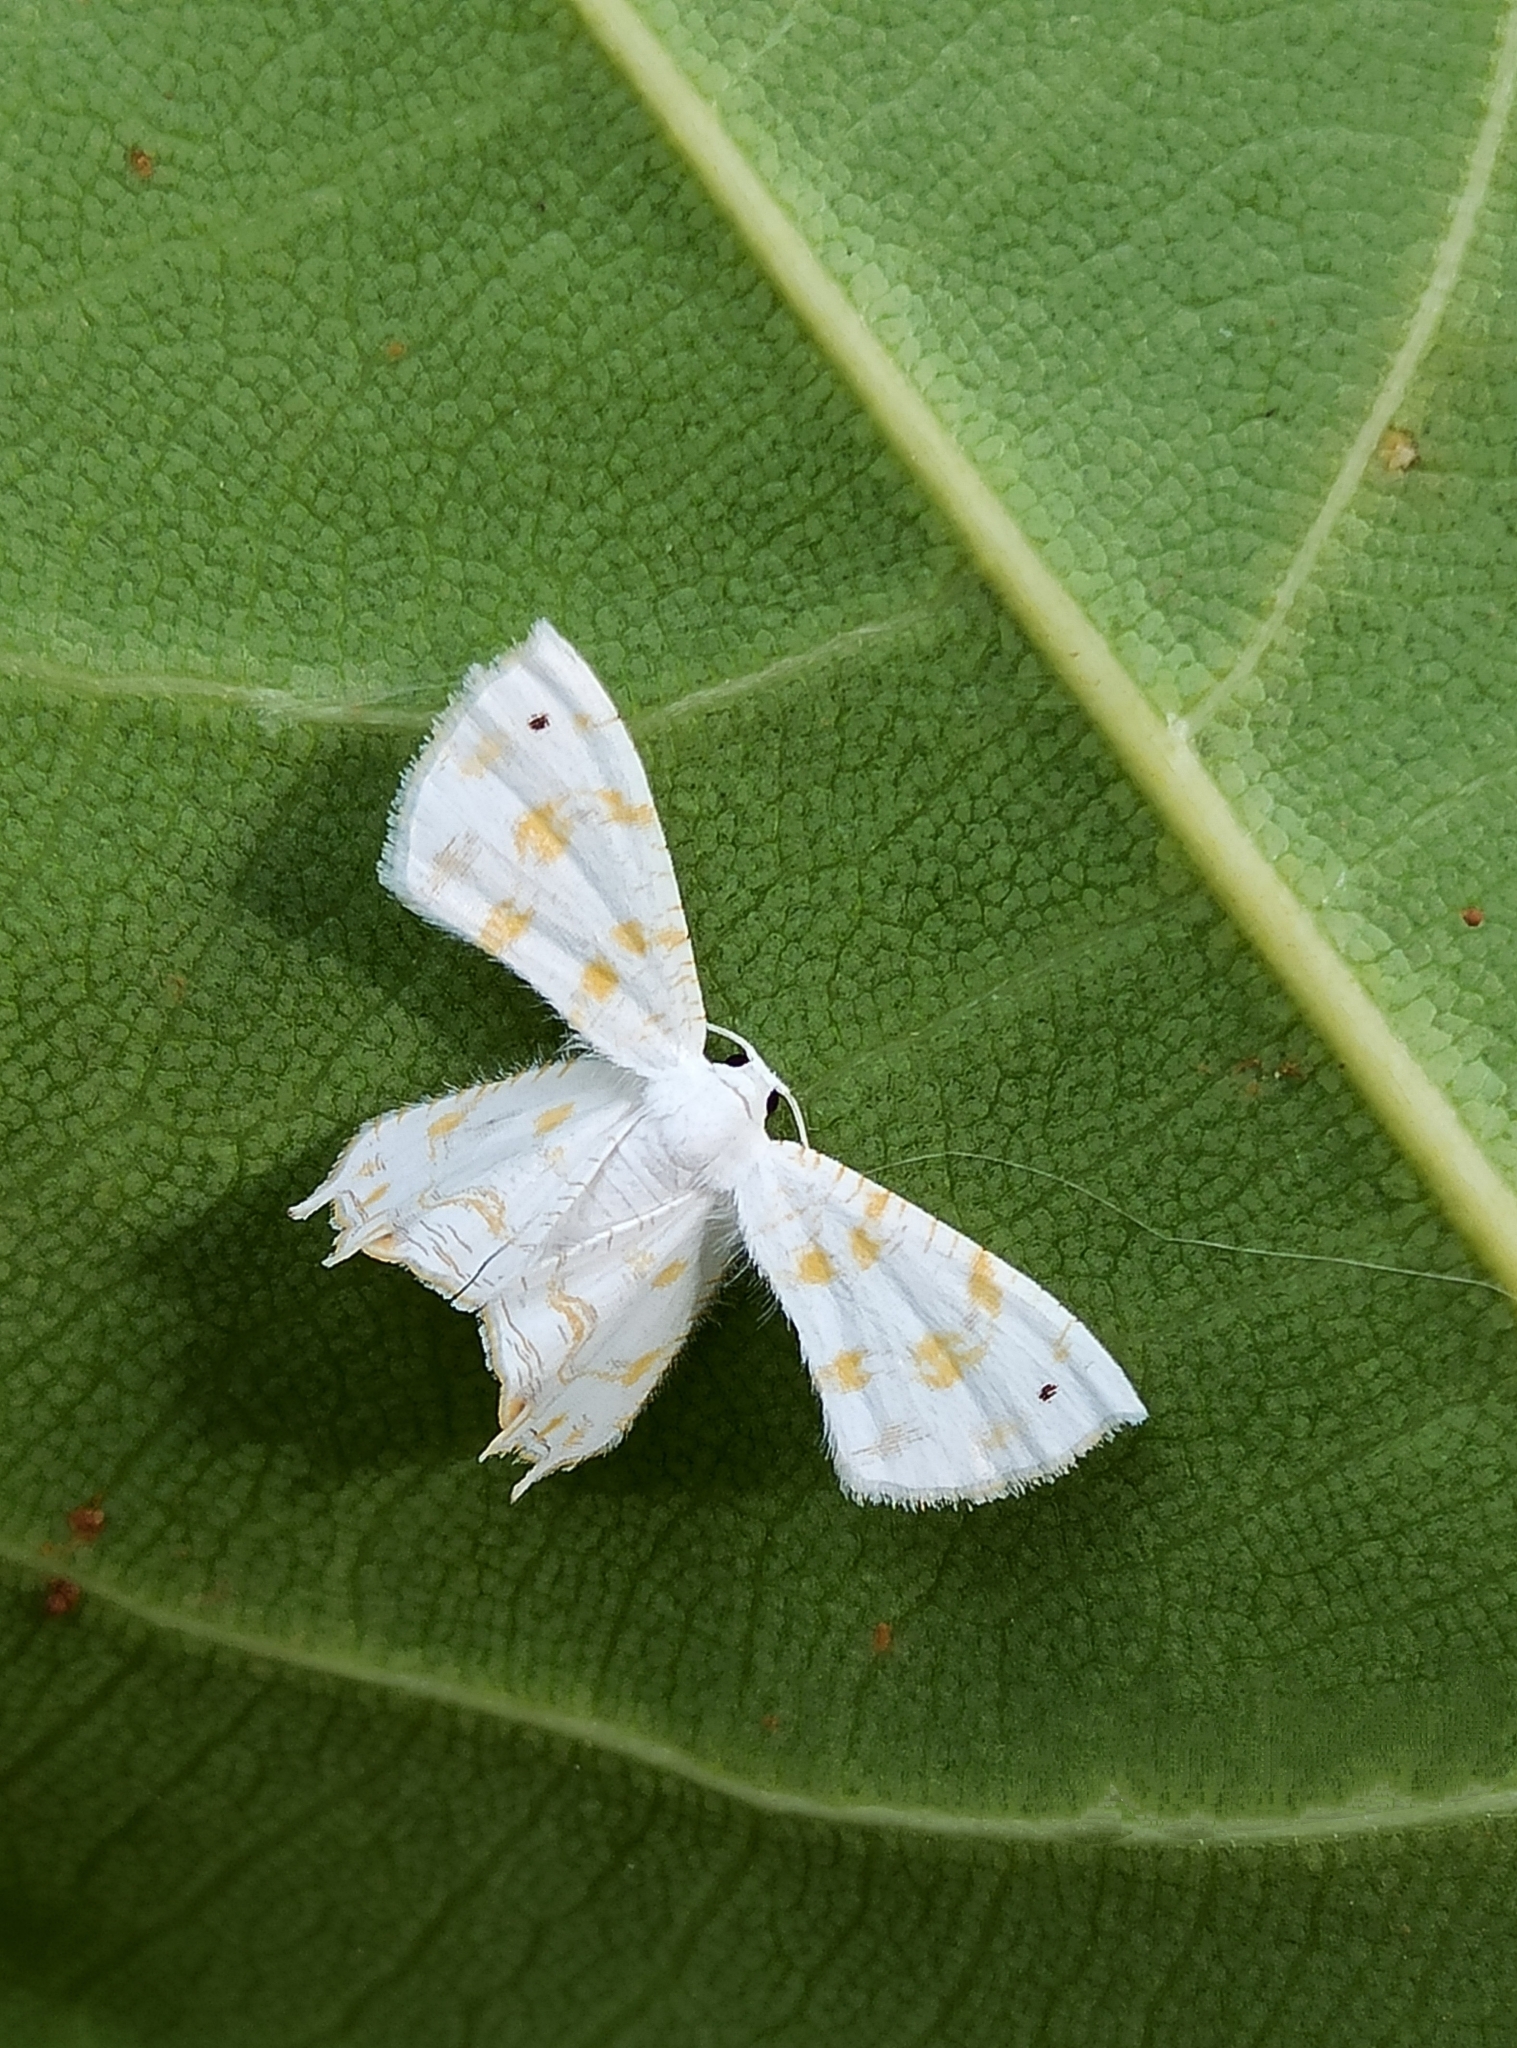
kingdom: Animalia
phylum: Arthropoda
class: Insecta
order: Lepidoptera
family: Uraniidae
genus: Epiplema
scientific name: Epiplema fulvilinea
